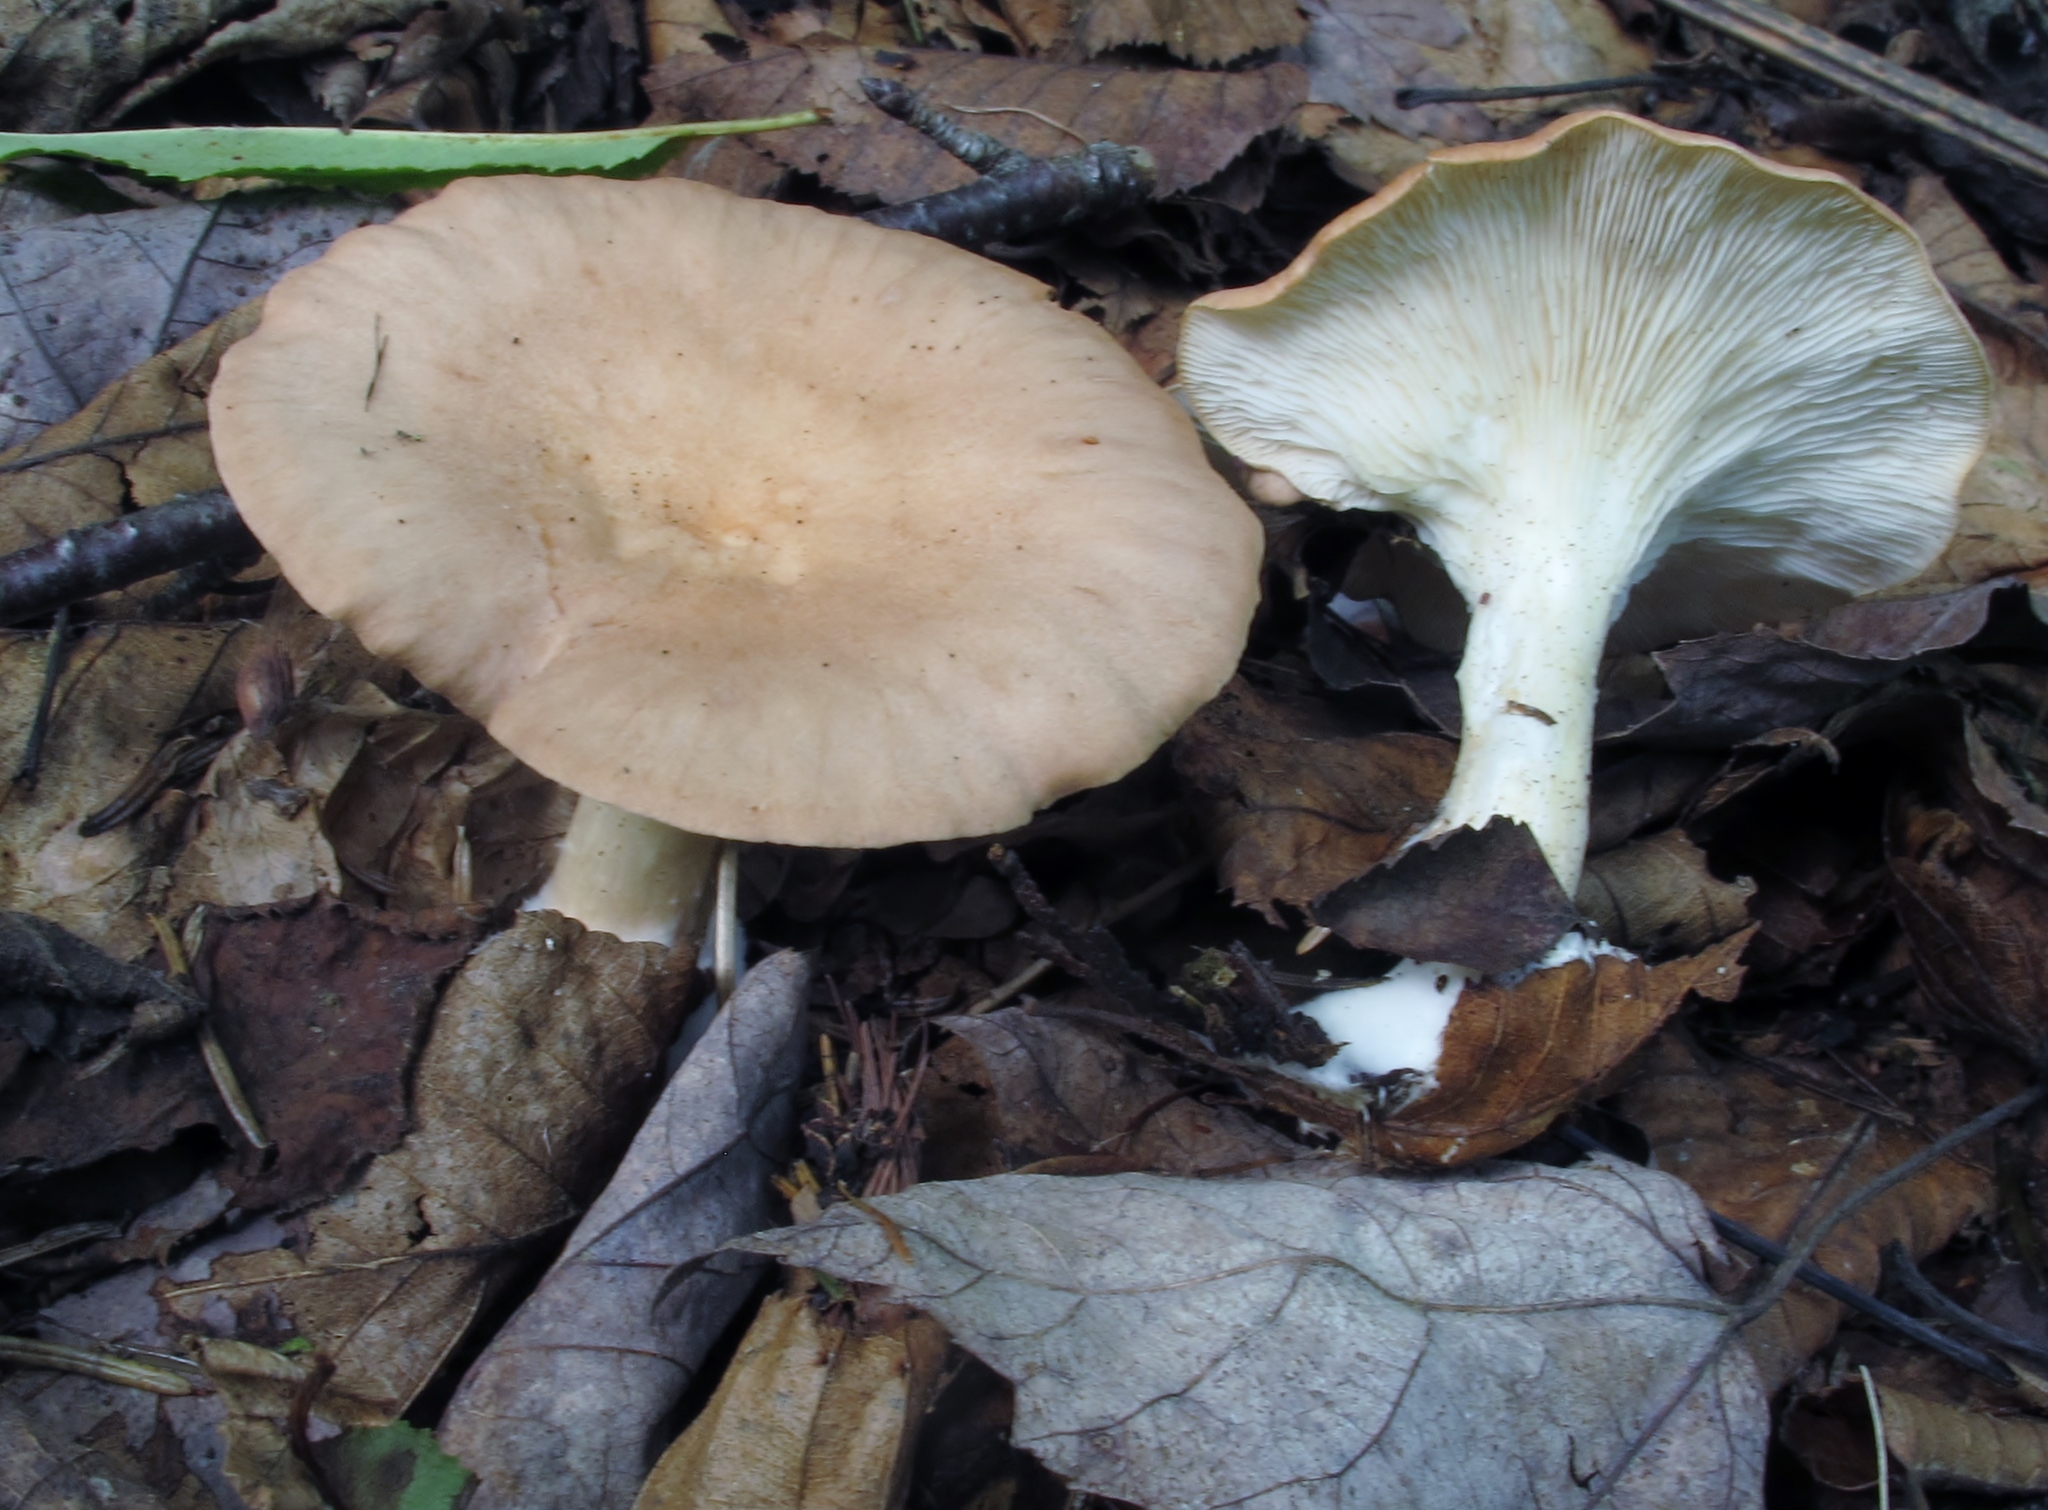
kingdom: Fungi
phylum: Basidiomycota
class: Agaricomycetes
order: Agaricales
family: Tricholomataceae
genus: Infundibulicybe
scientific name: Infundibulicybe gibba
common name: Common funnel
